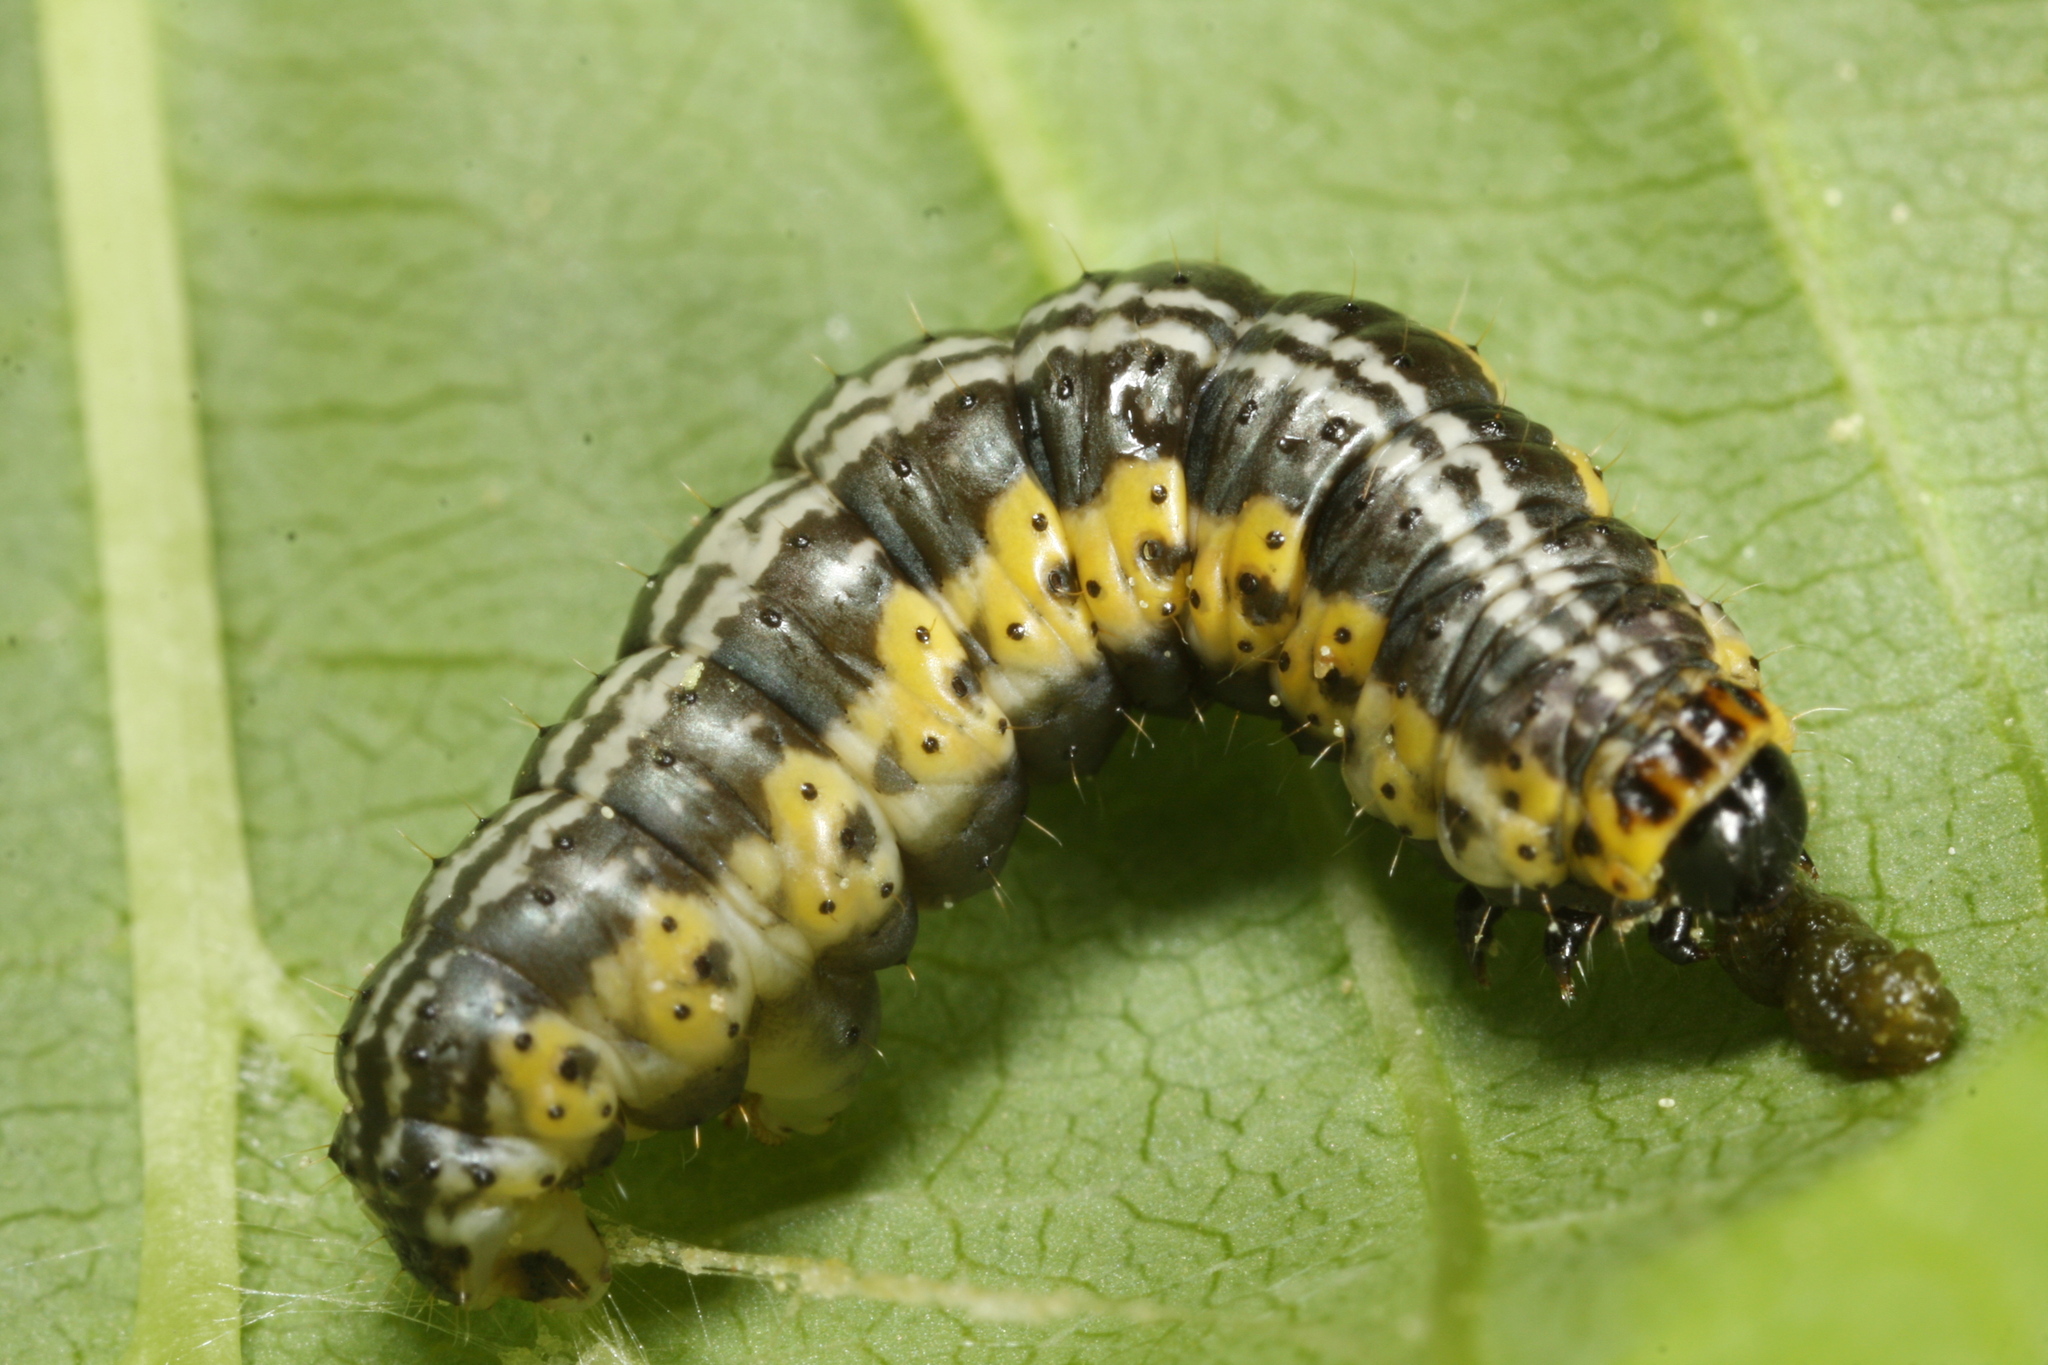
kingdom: Animalia
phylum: Arthropoda
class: Insecta
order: Lepidoptera
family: Geometridae
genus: Philereme
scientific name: Philereme vetulata
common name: Brown scallop
